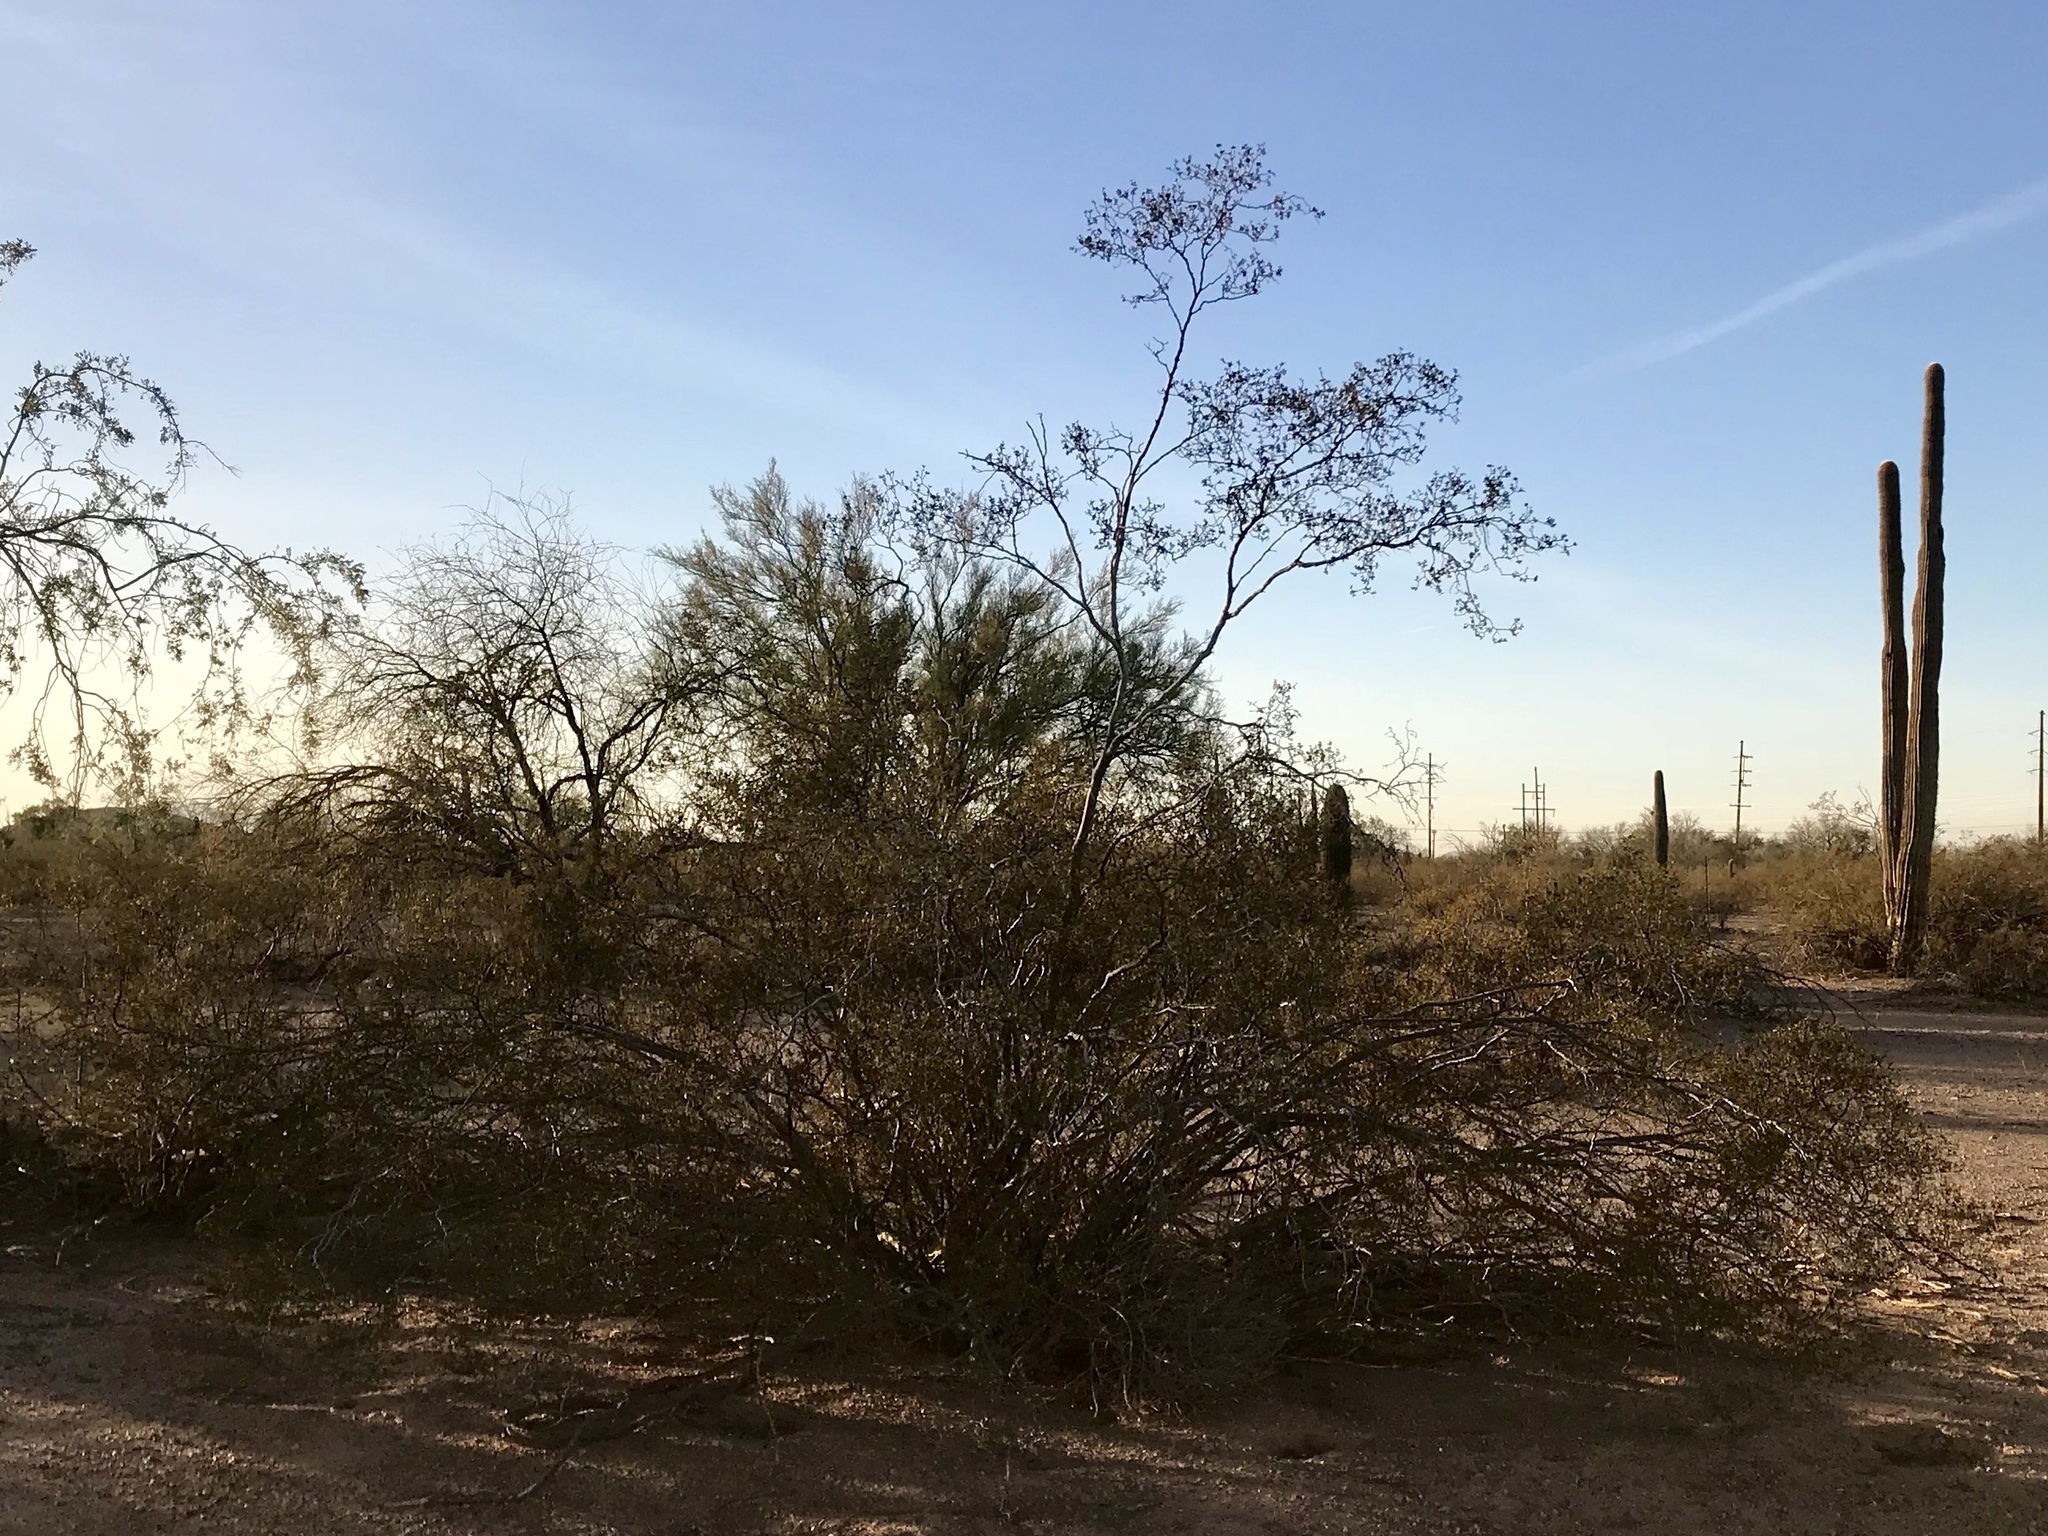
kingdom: Plantae
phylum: Tracheophyta
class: Magnoliopsida
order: Zygophyllales
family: Zygophyllaceae
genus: Larrea
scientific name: Larrea tridentata
